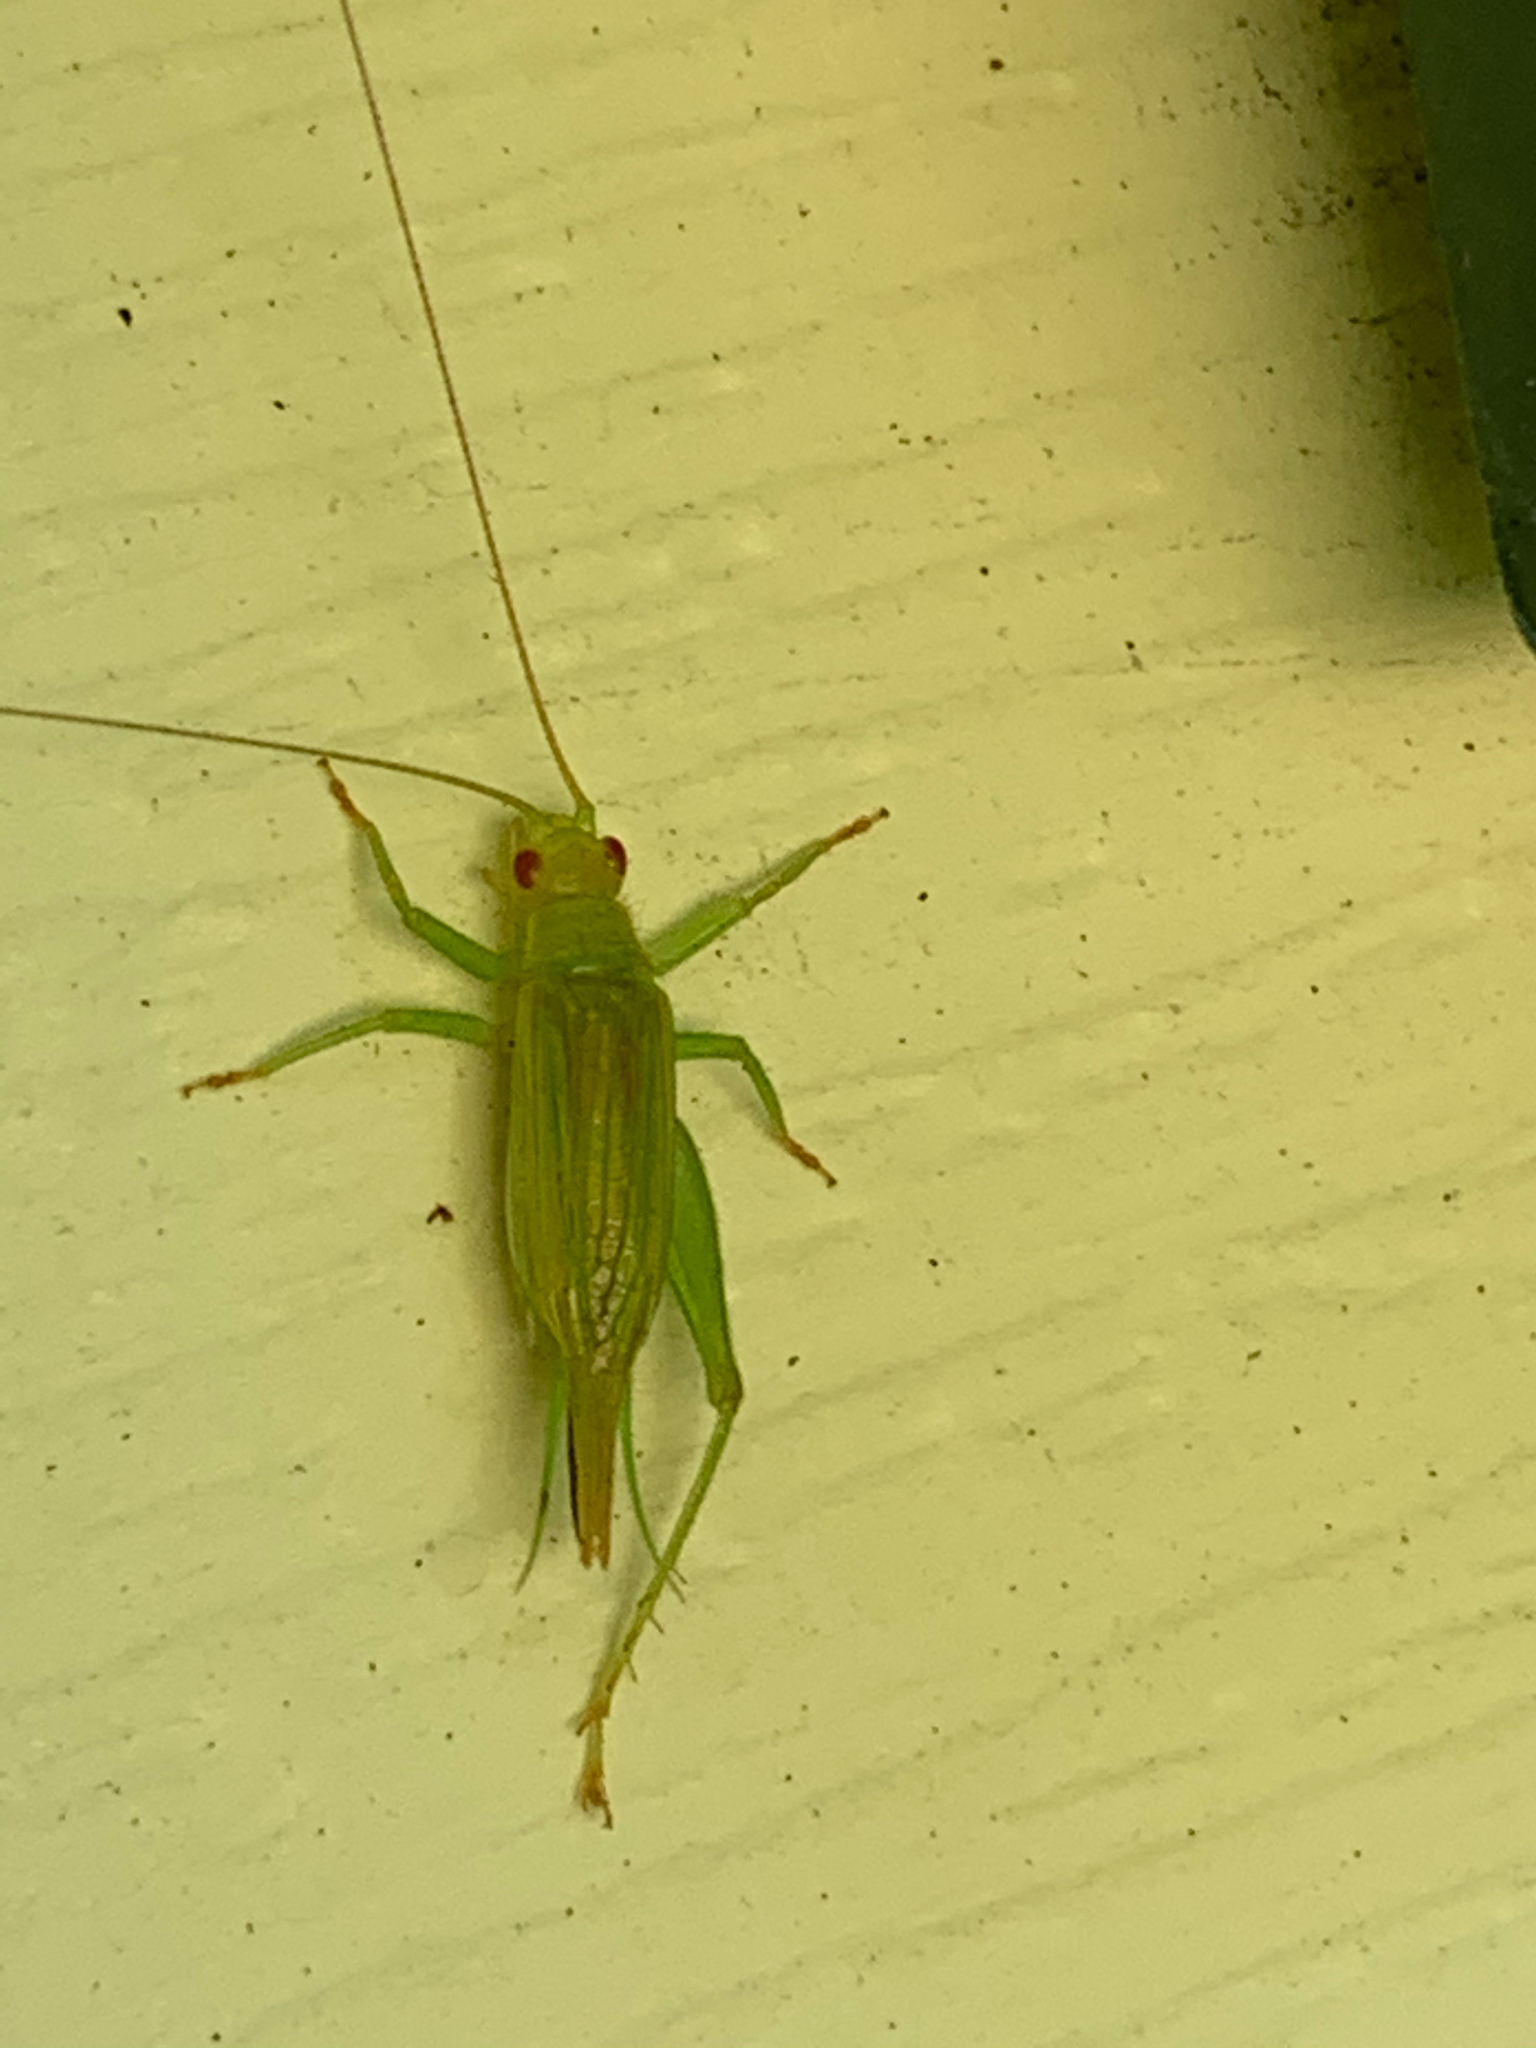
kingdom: Animalia
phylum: Arthropoda
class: Insecta
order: Orthoptera
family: Trigonidiidae
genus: Cyrtoxipha
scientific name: Cyrtoxipha columbiana
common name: Columbian trig
